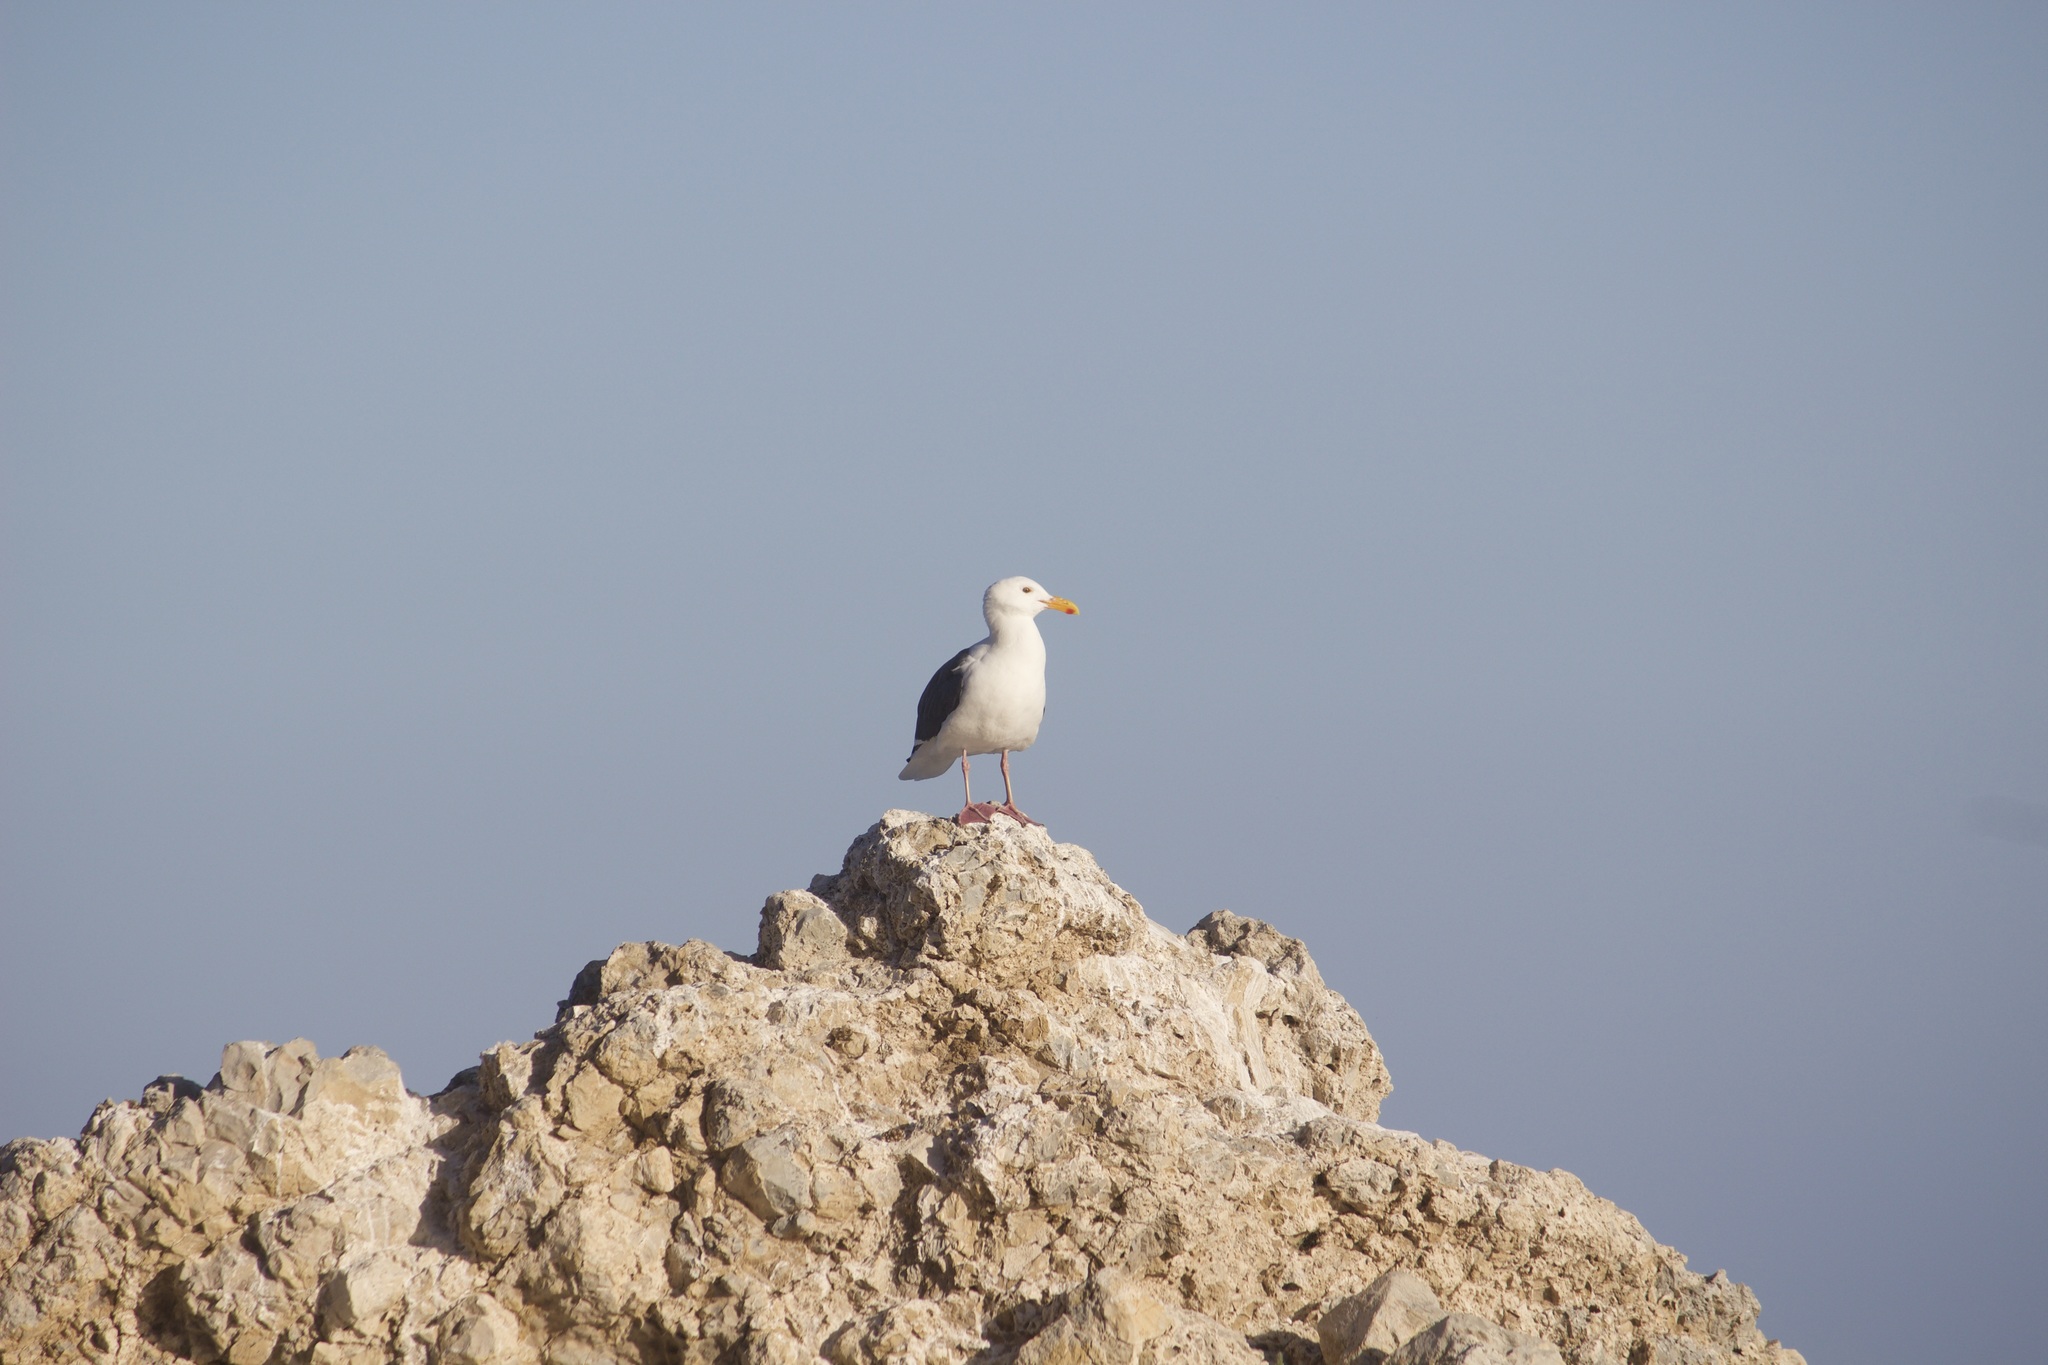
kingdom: Animalia
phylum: Chordata
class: Aves
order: Charadriiformes
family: Laridae
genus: Larus
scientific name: Larus occidentalis
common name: Western gull
